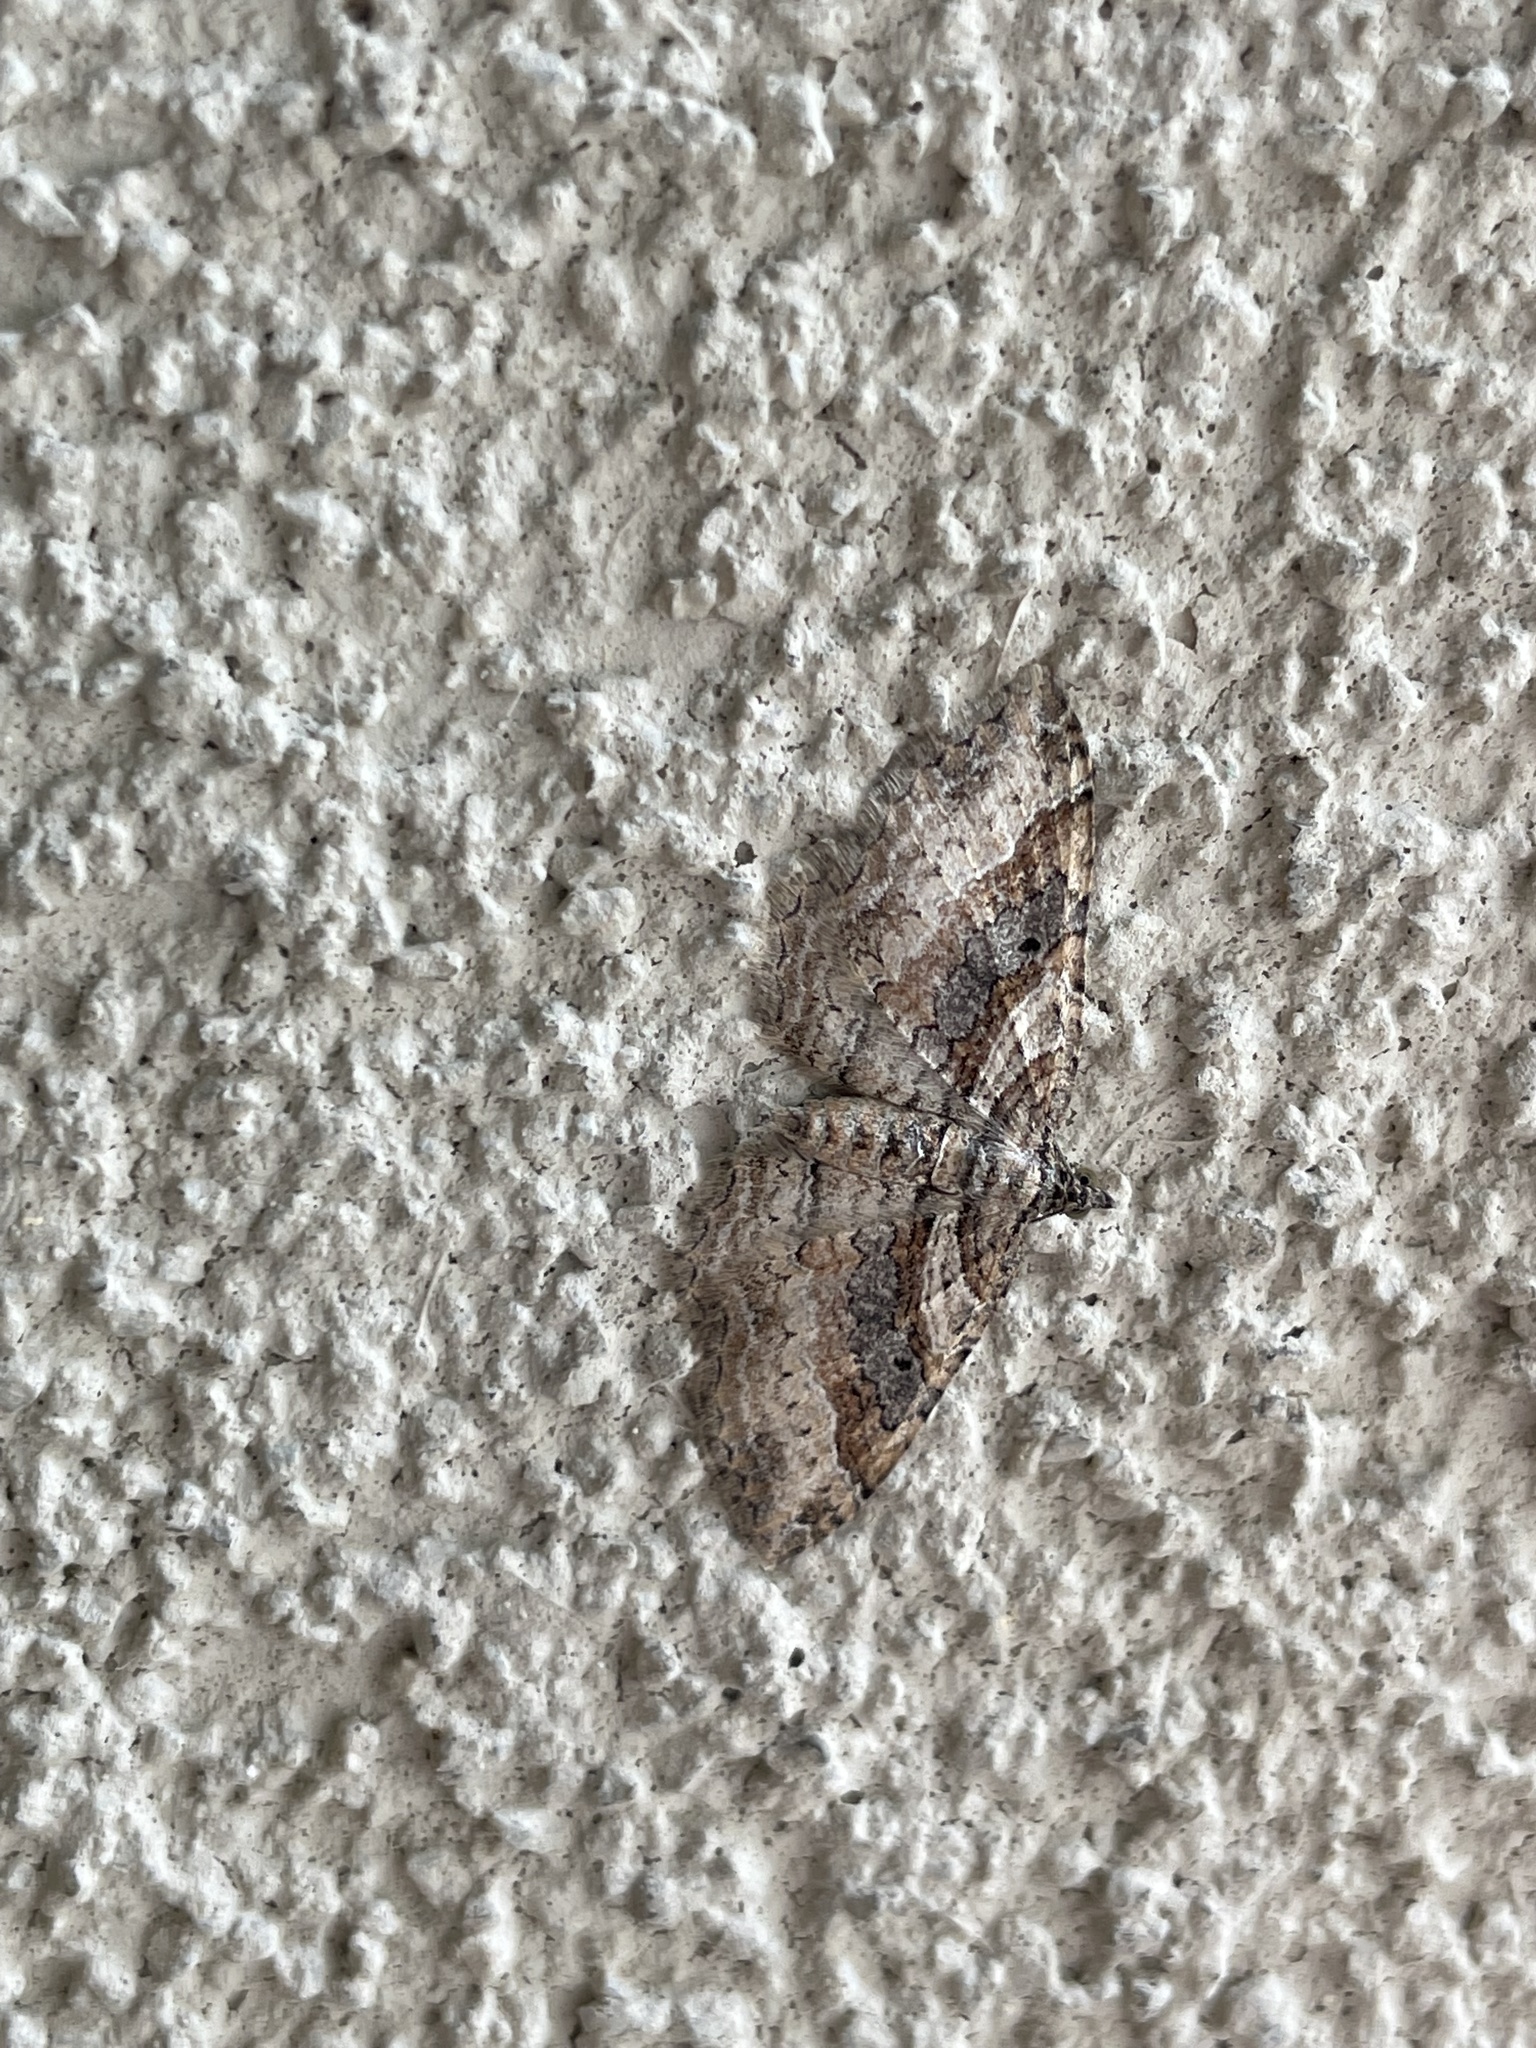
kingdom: Animalia
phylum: Arthropoda
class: Insecta
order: Lepidoptera
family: Geometridae
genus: Costaconvexa
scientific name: Costaconvexa centrostrigaria
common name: Bent-line carpet
